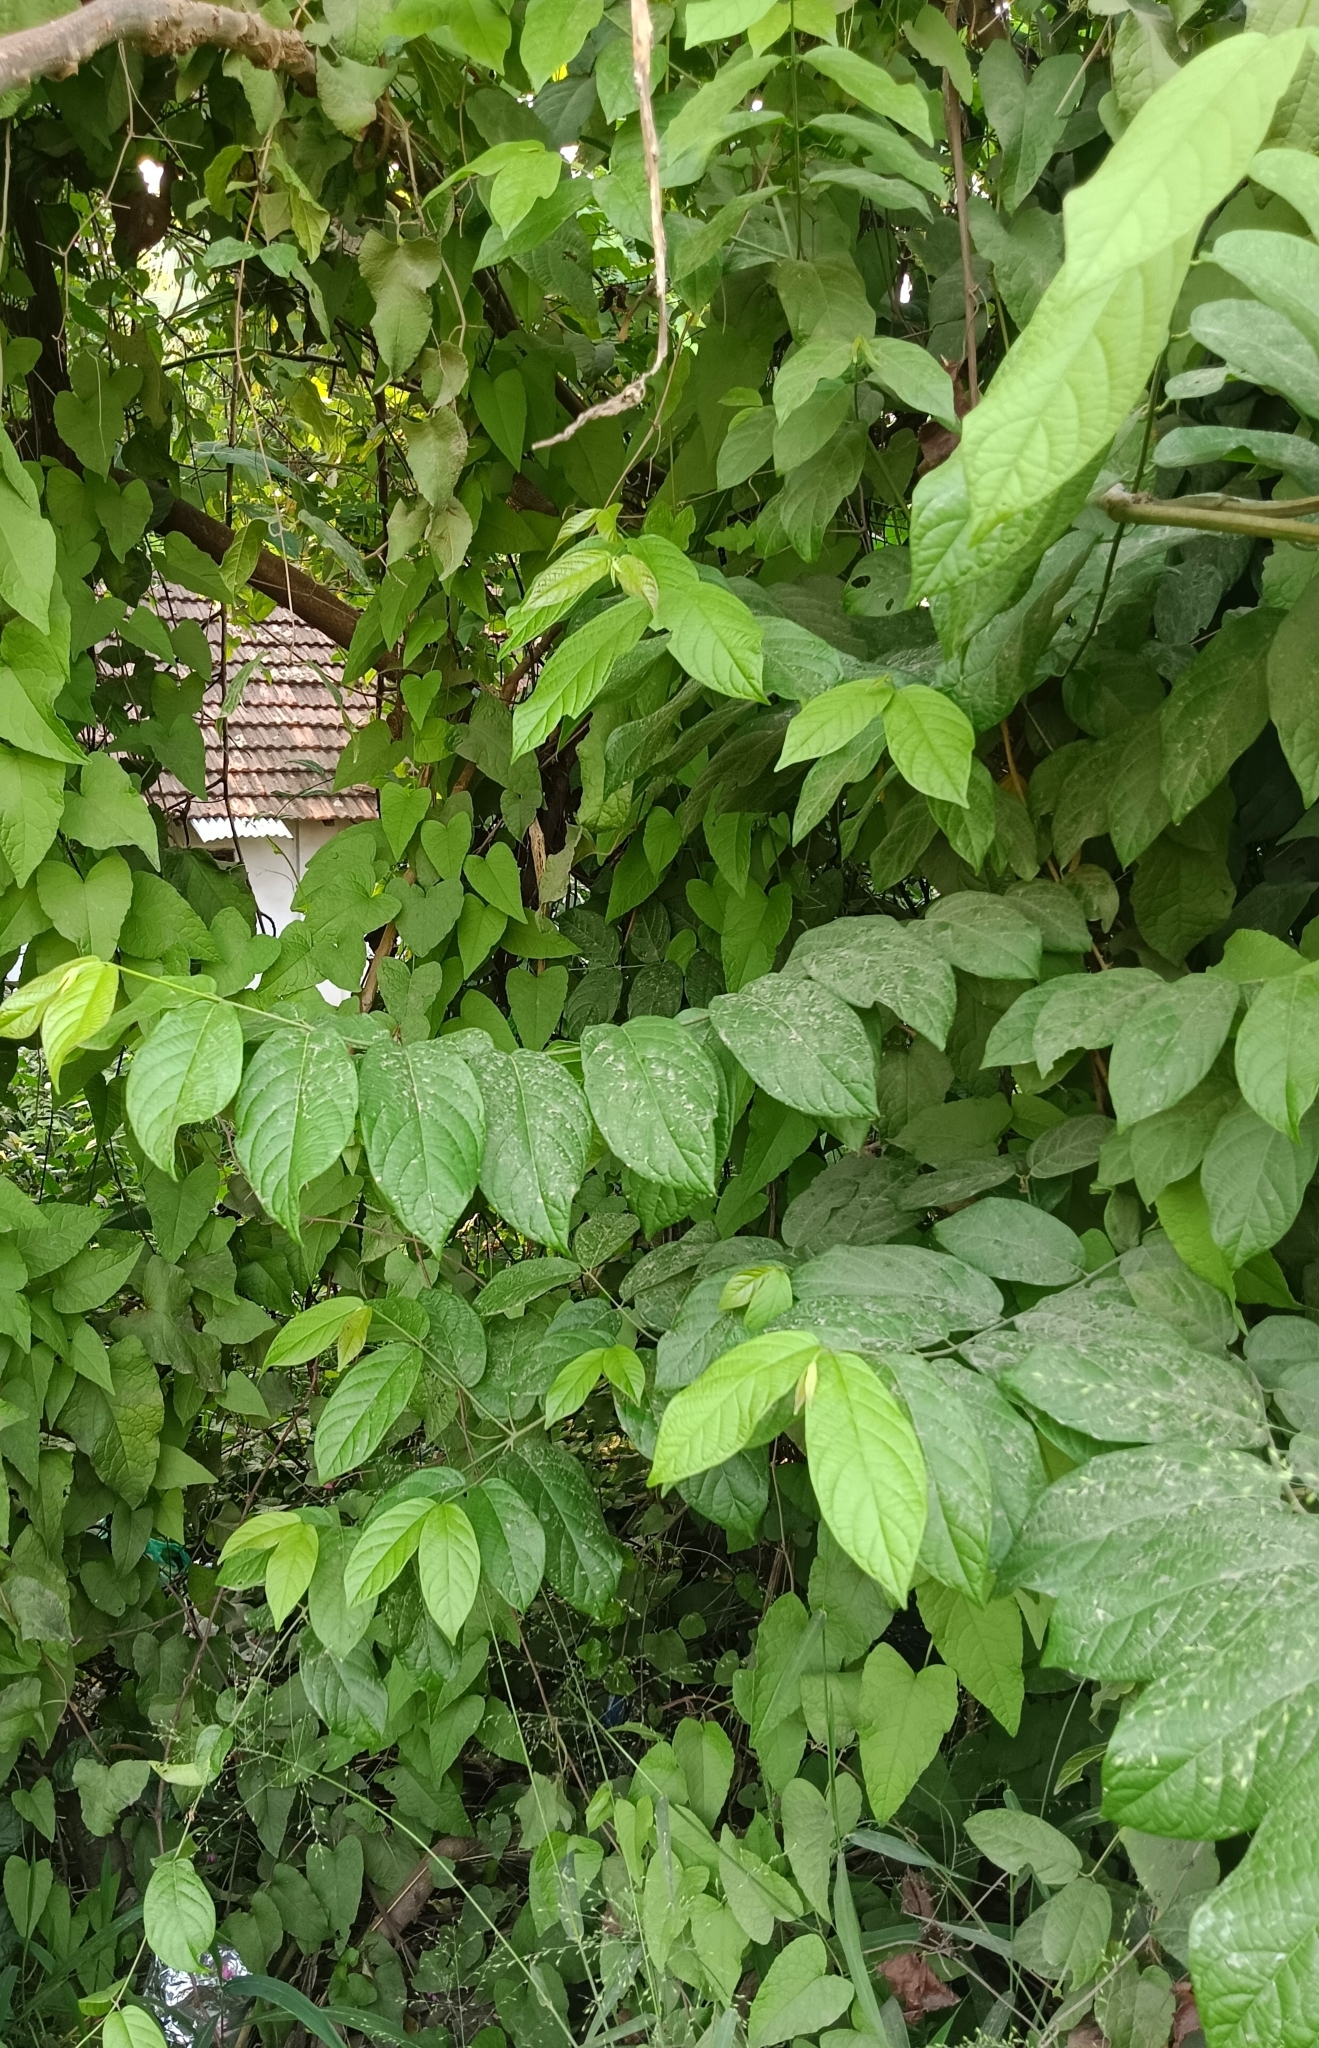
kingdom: Plantae
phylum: Tracheophyta
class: Magnoliopsida
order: Myrtales
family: Combretaceae
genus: Combretum
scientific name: Combretum indicum
